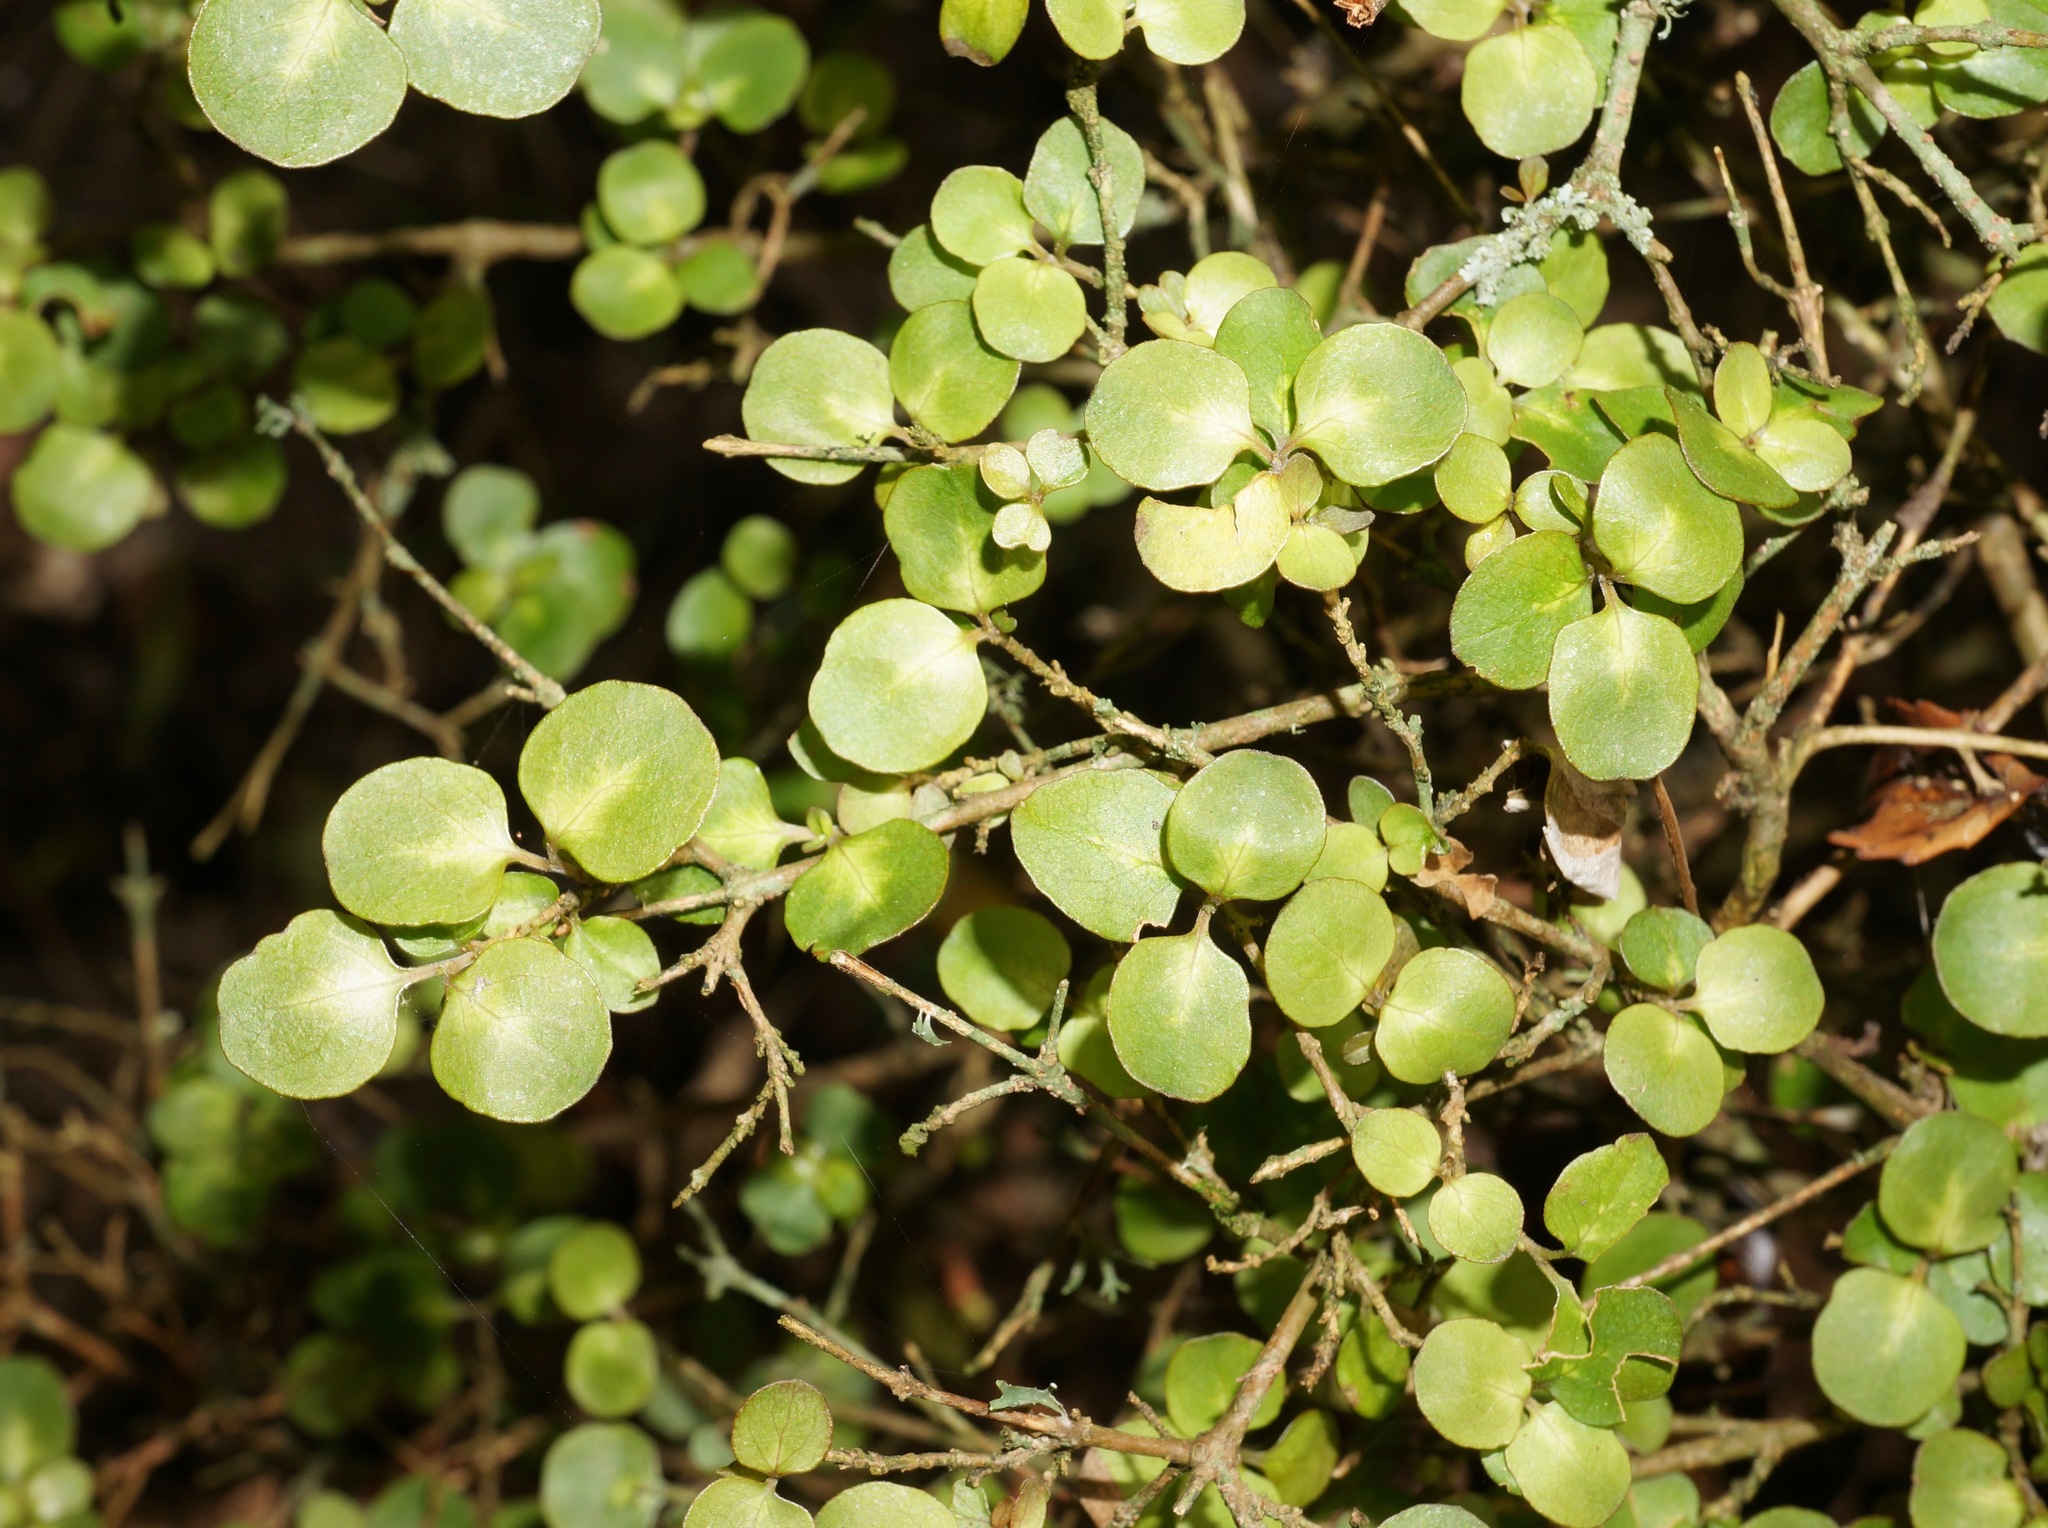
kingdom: Plantae
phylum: Tracheophyta
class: Magnoliopsida
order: Gentianales
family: Rubiaceae
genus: Coprosma
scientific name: Coprosma rhamnoides
